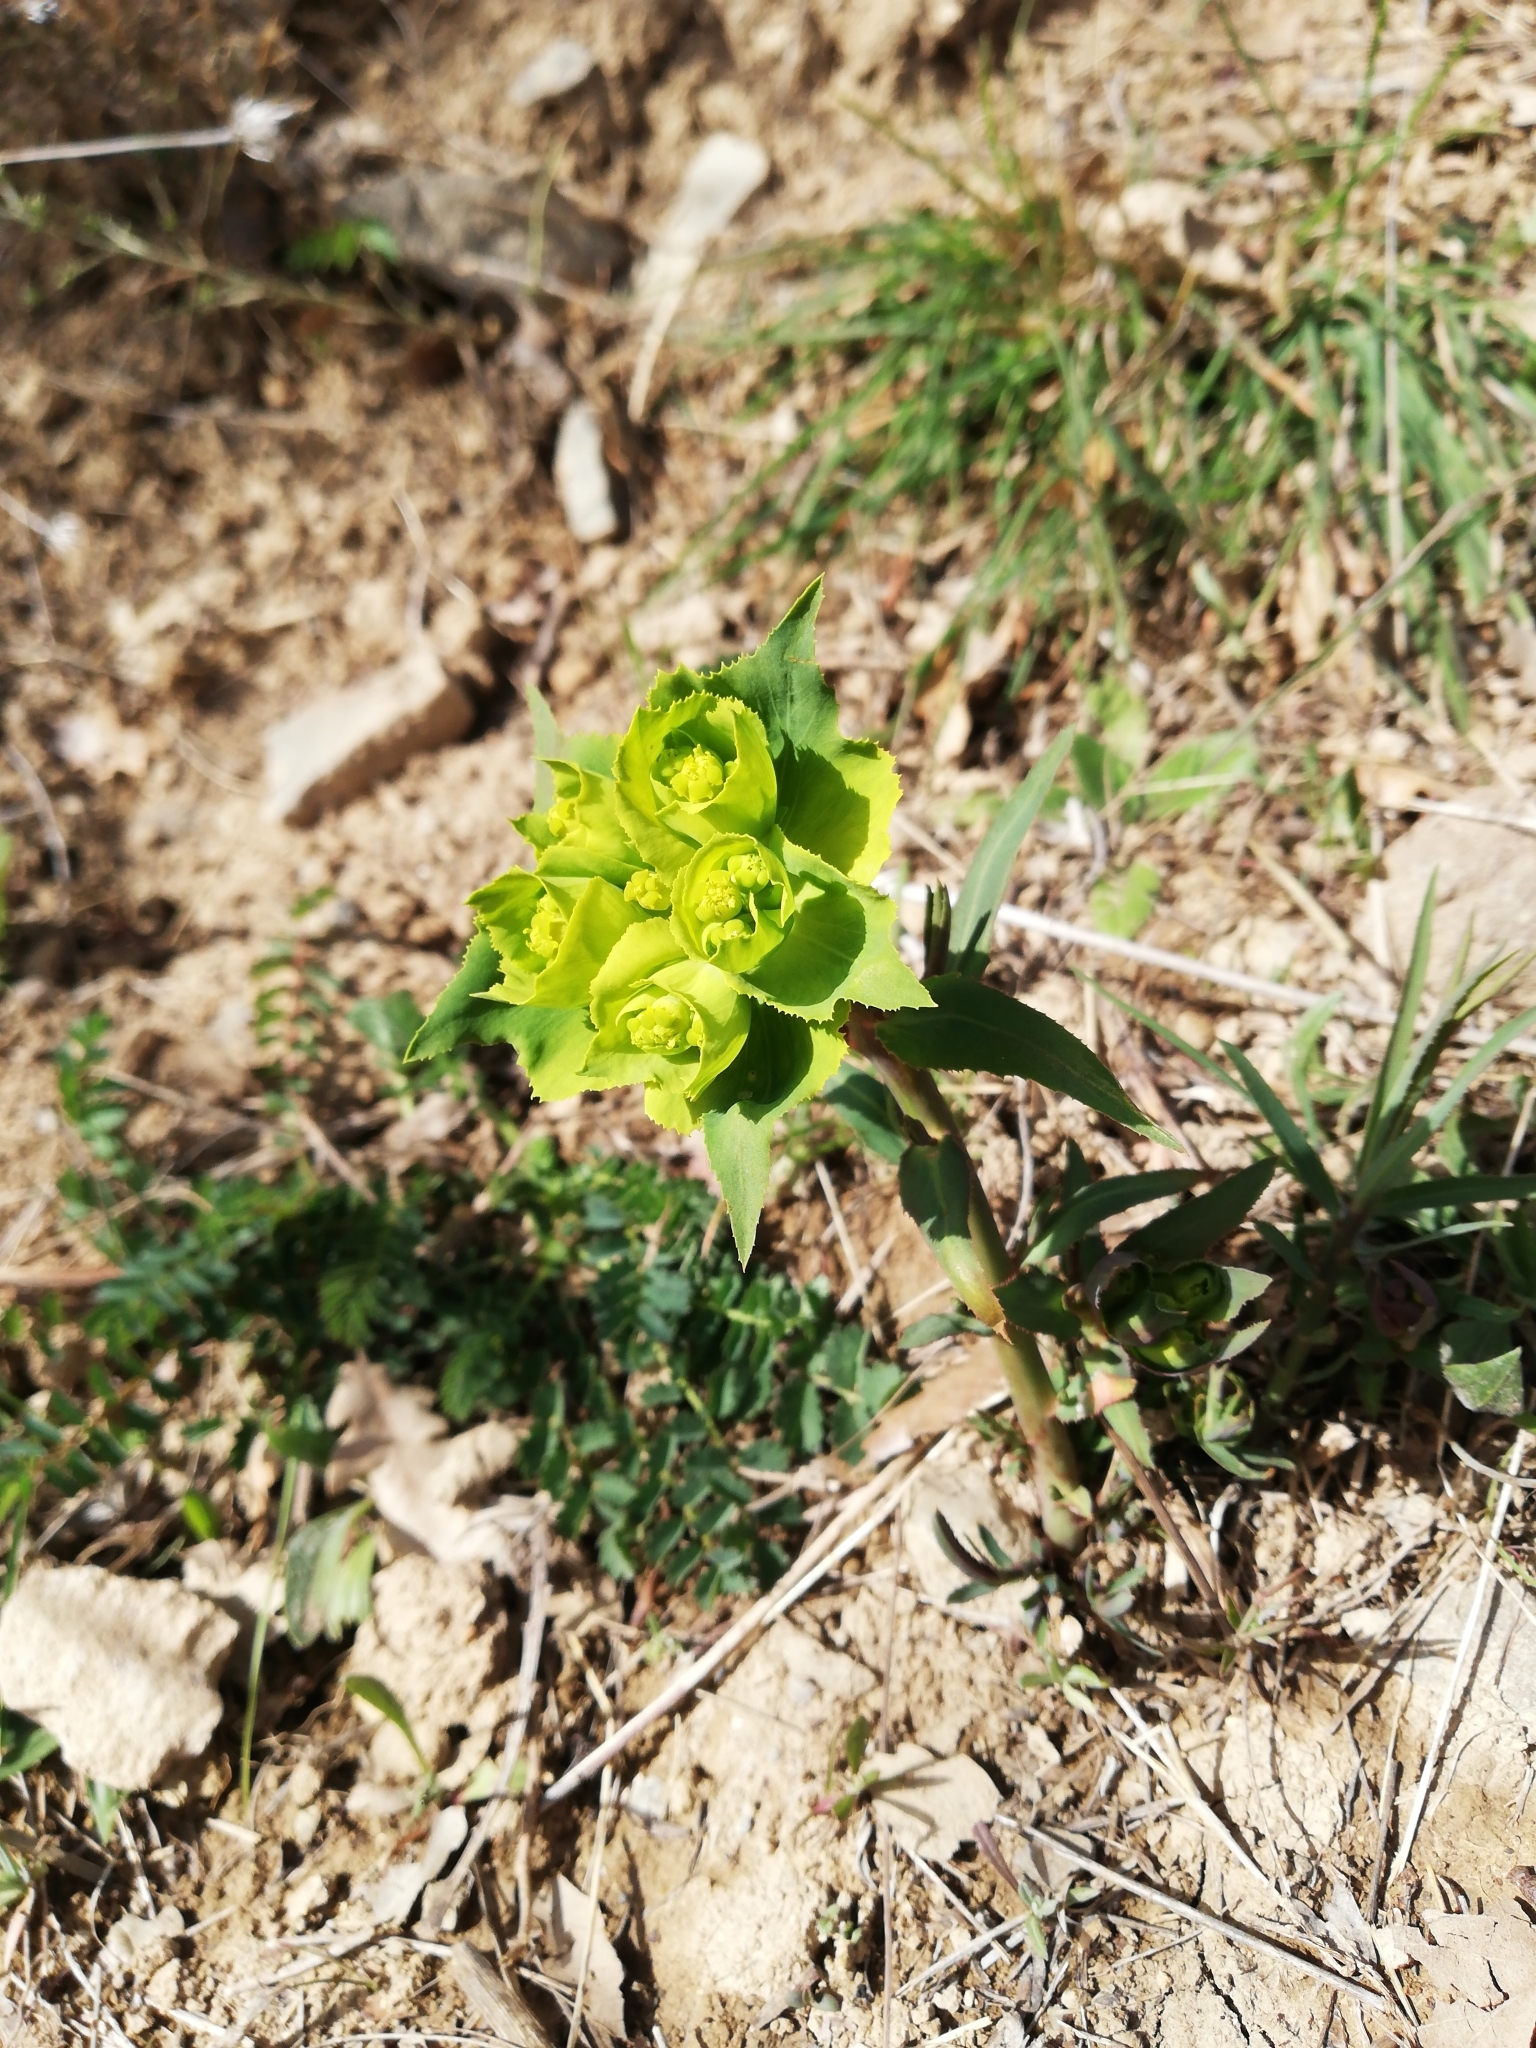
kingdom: Plantae
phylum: Tracheophyta
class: Magnoliopsida
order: Malpighiales
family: Euphorbiaceae
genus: Euphorbia
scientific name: Euphorbia serrata
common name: Serrate spurge
